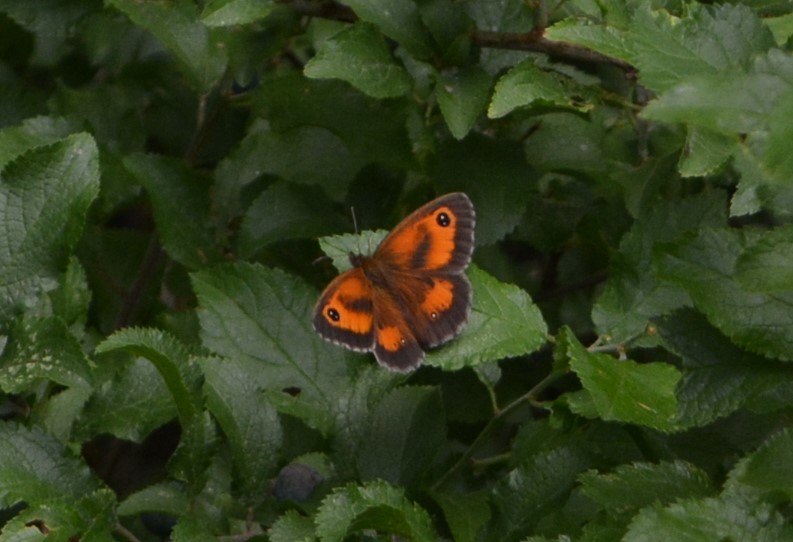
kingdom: Animalia
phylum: Arthropoda
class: Insecta
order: Lepidoptera
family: Nymphalidae
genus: Pyronia
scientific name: Pyronia tithonus
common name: Gatekeeper
